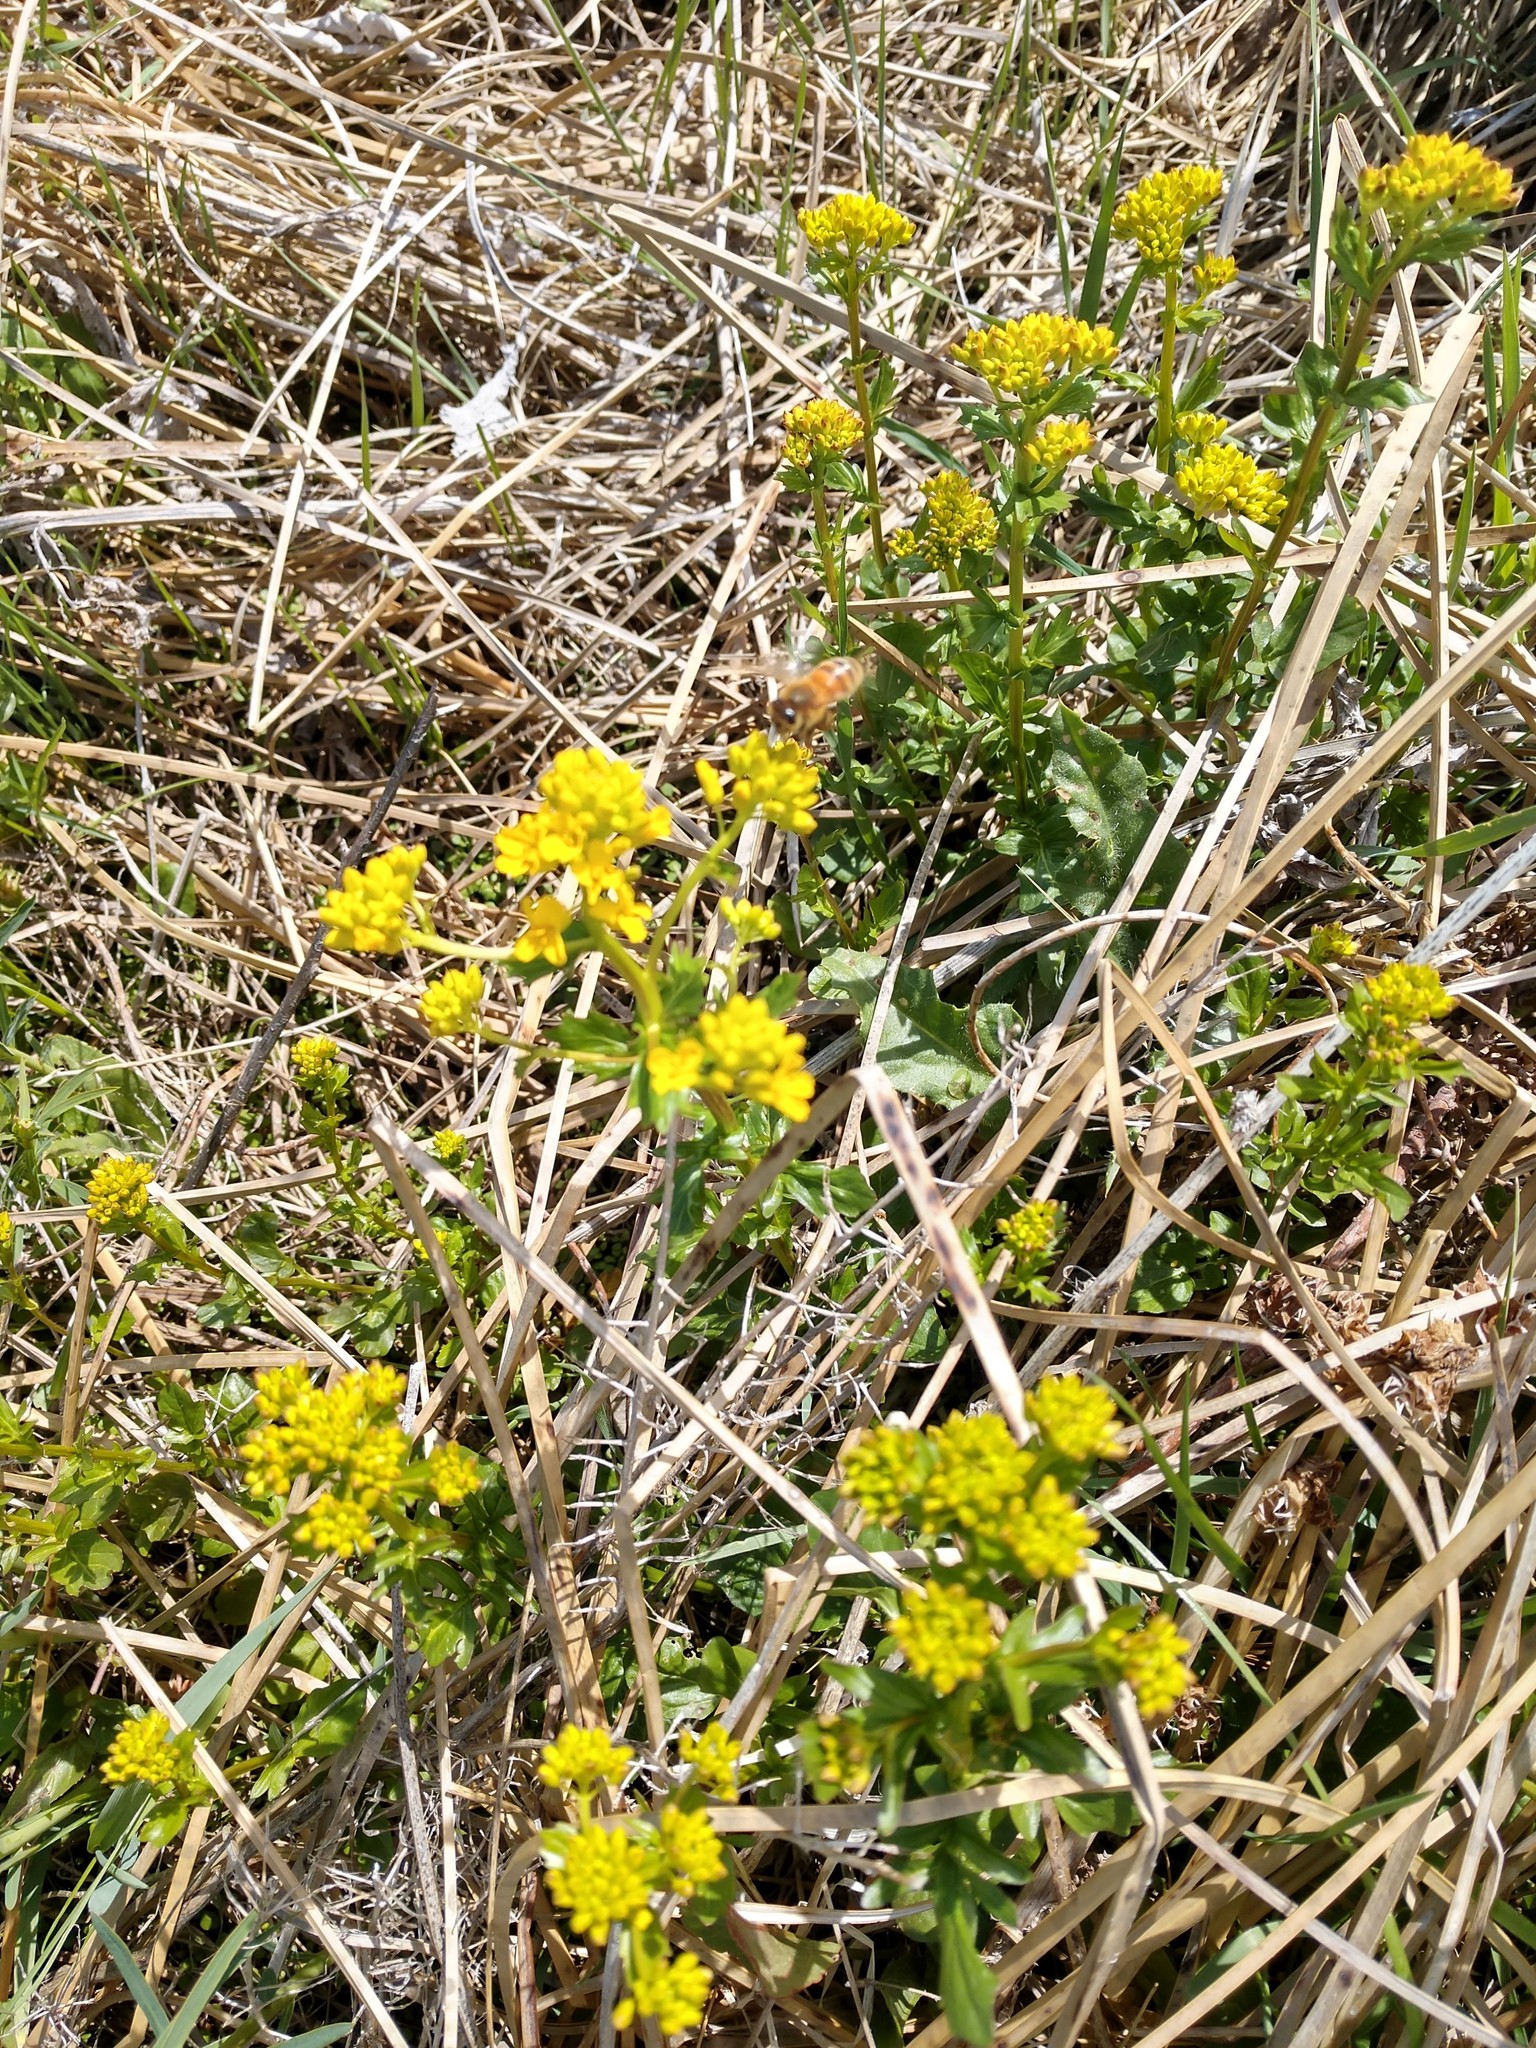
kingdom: Animalia
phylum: Arthropoda
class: Insecta
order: Hymenoptera
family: Apidae
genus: Apis
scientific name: Apis mellifera
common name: Honey bee
